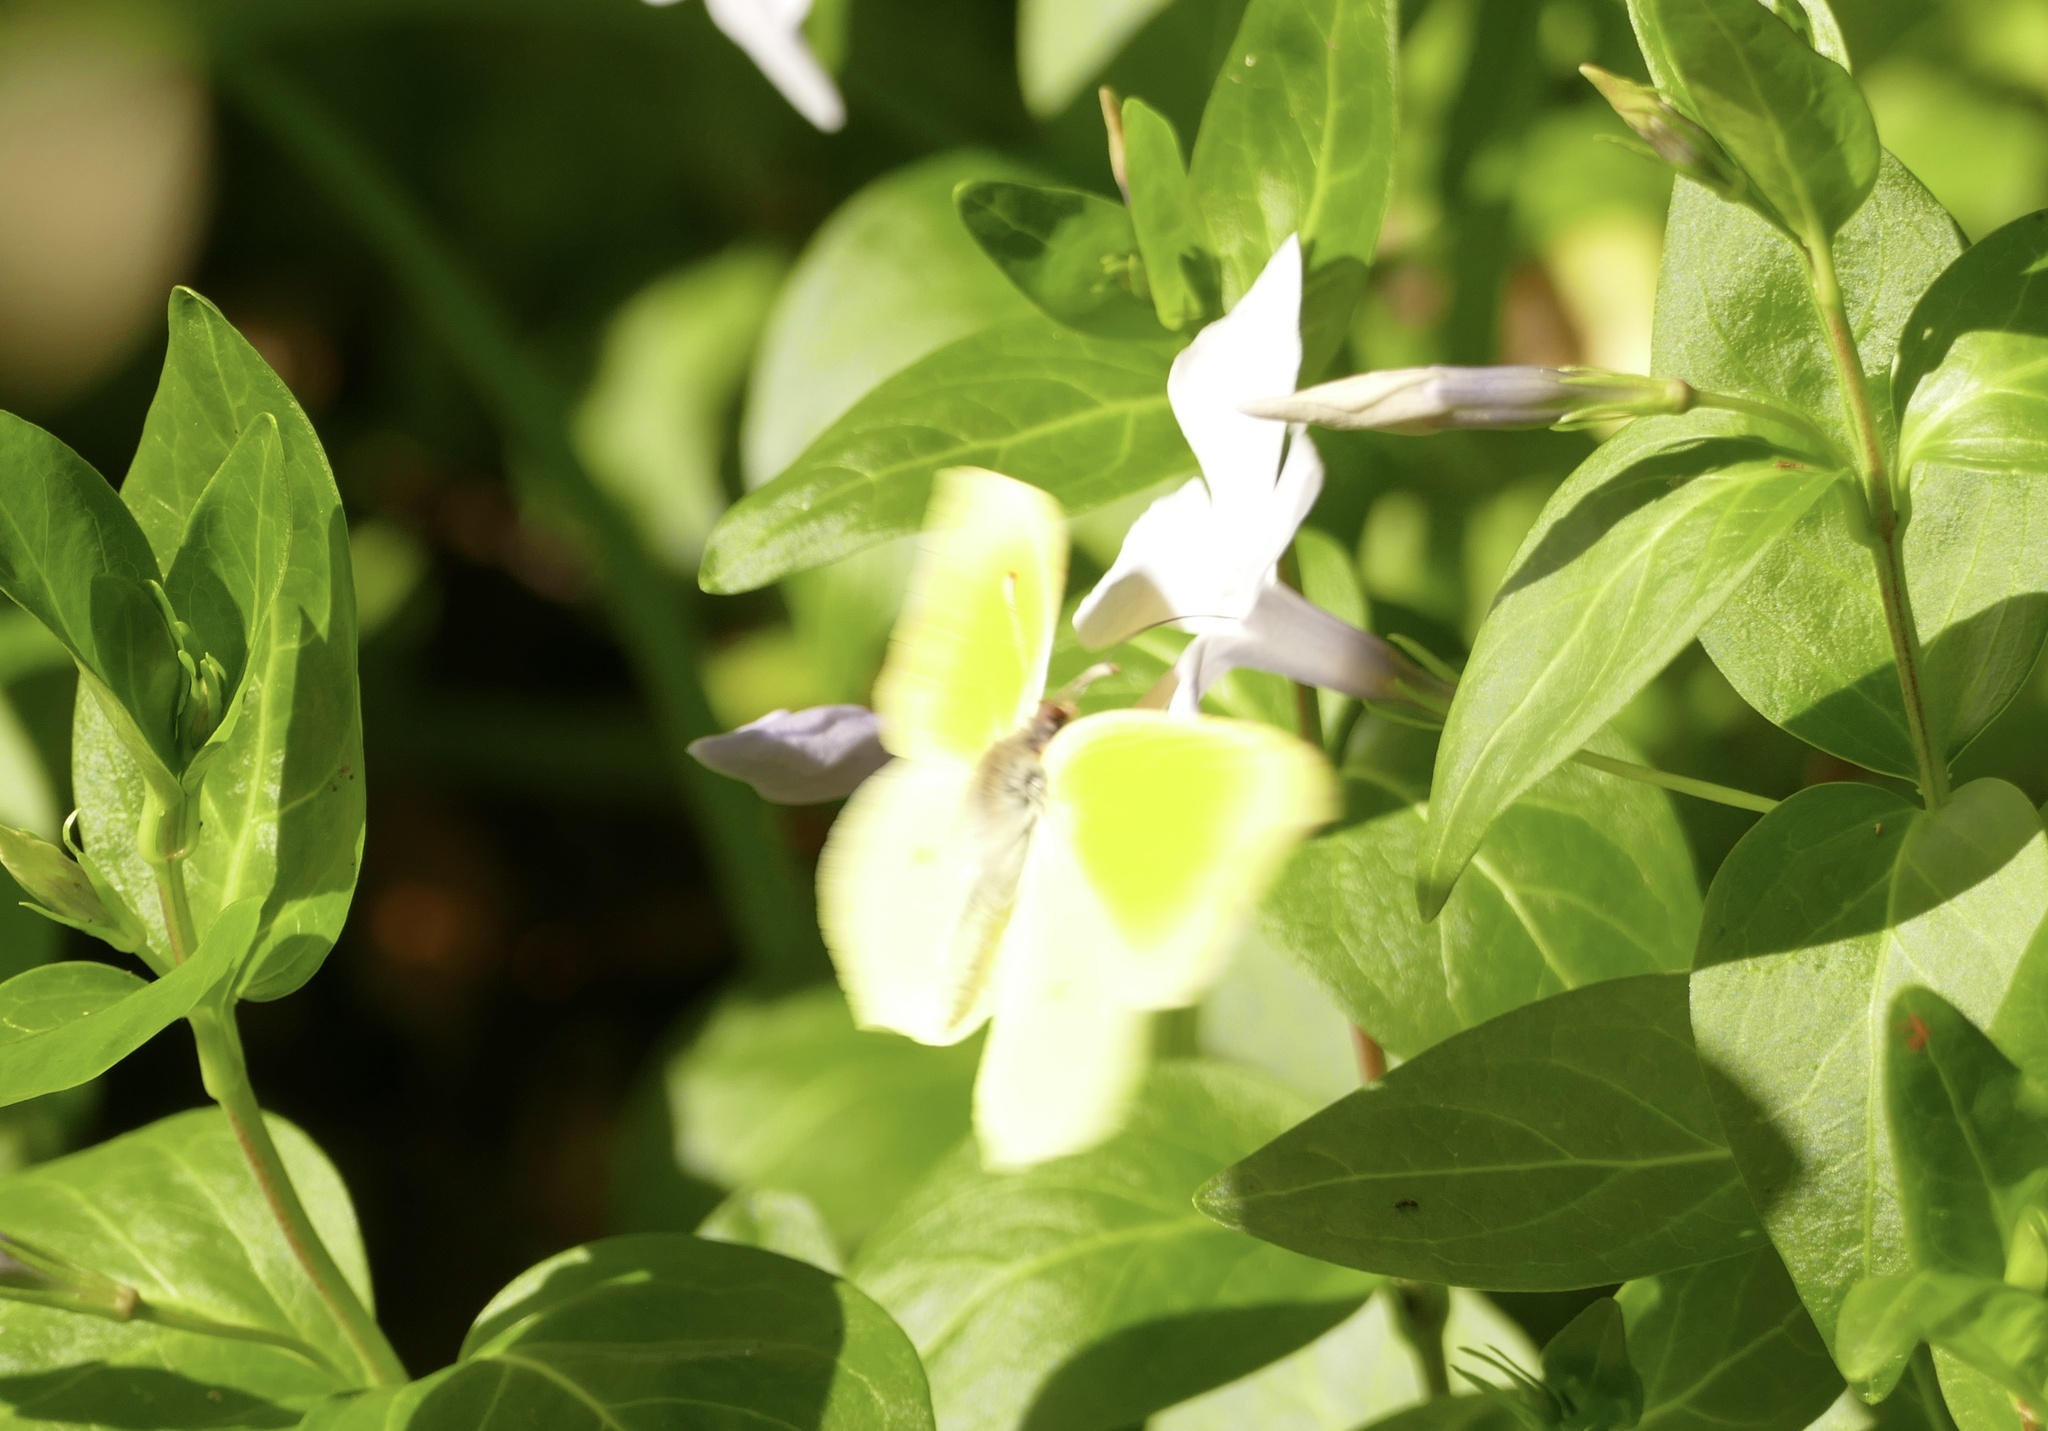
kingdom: Animalia
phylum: Arthropoda
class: Insecta
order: Lepidoptera
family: Pieridae
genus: Gonepteryx
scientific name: Gonepteryx cleopatra
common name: Cleopatra
